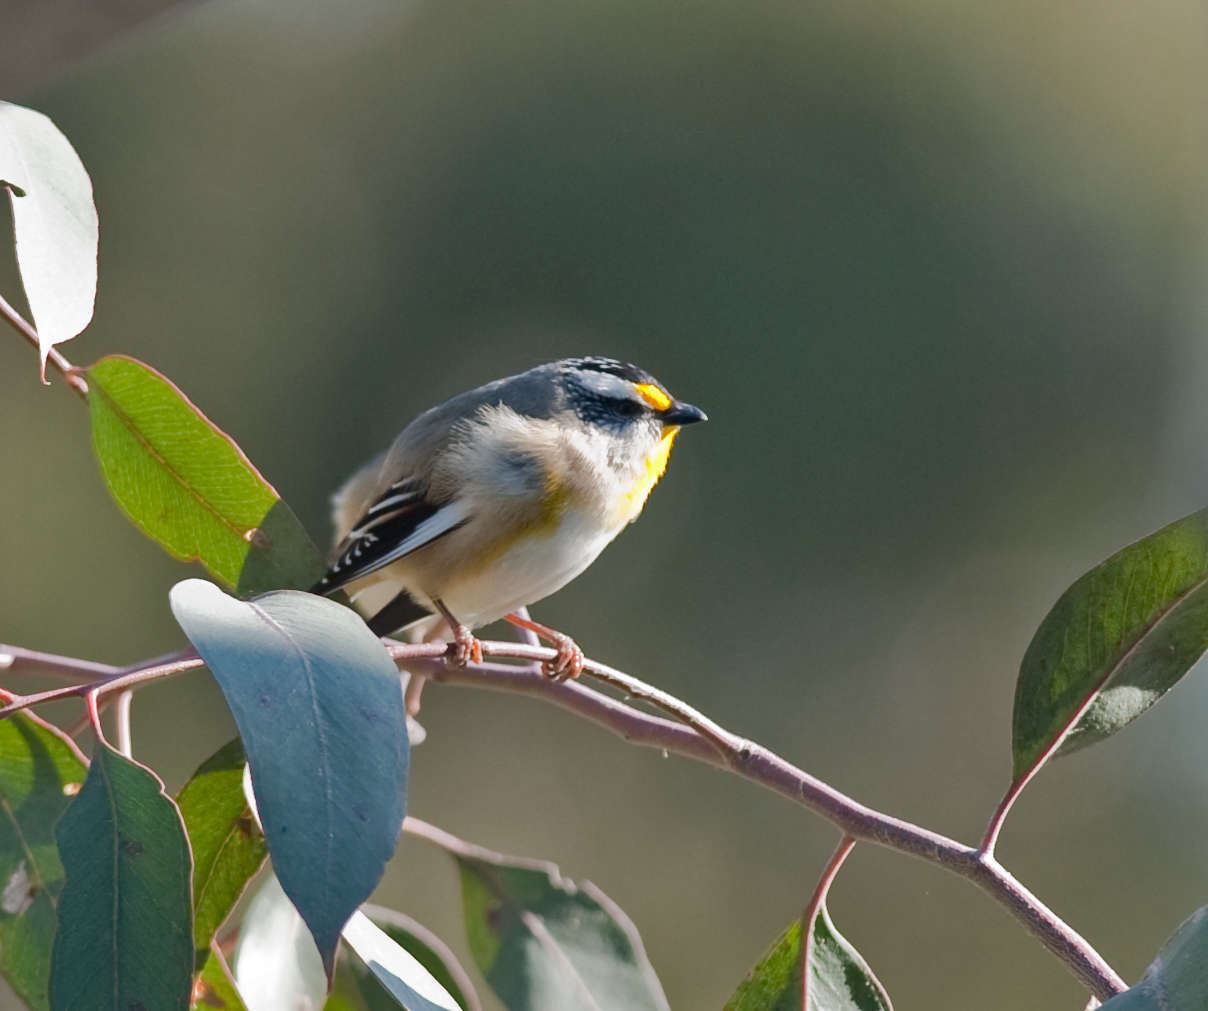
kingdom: Animalia
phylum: Chordata
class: Aves
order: Passeriformes
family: Pardalotidae
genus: Pardalotus
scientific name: Pardalotus striatus
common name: Striated pardalote
